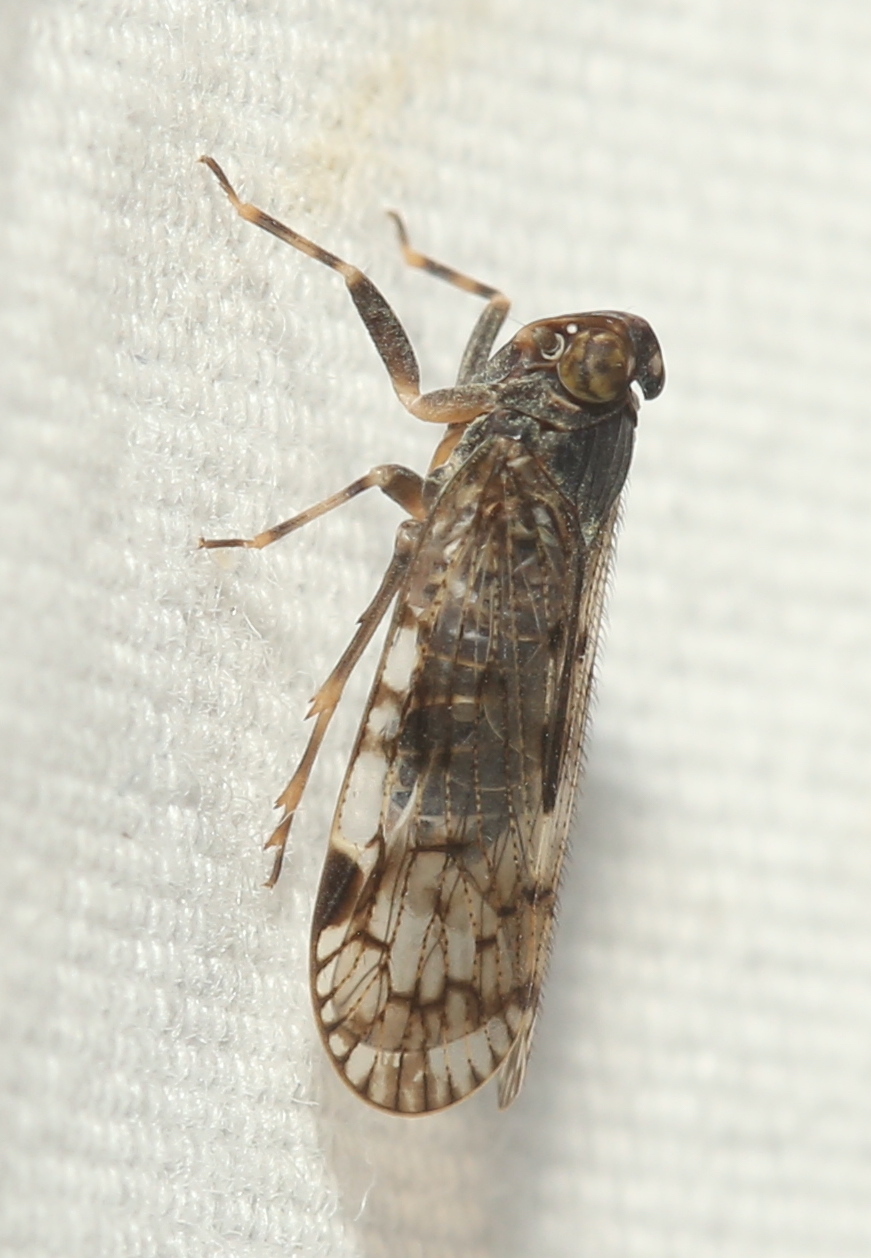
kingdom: Animalia
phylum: Arthropoda
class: Insecta
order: Hemiptera
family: Cixiidae
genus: Melanoliarus
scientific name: Melanoliarus placitus
